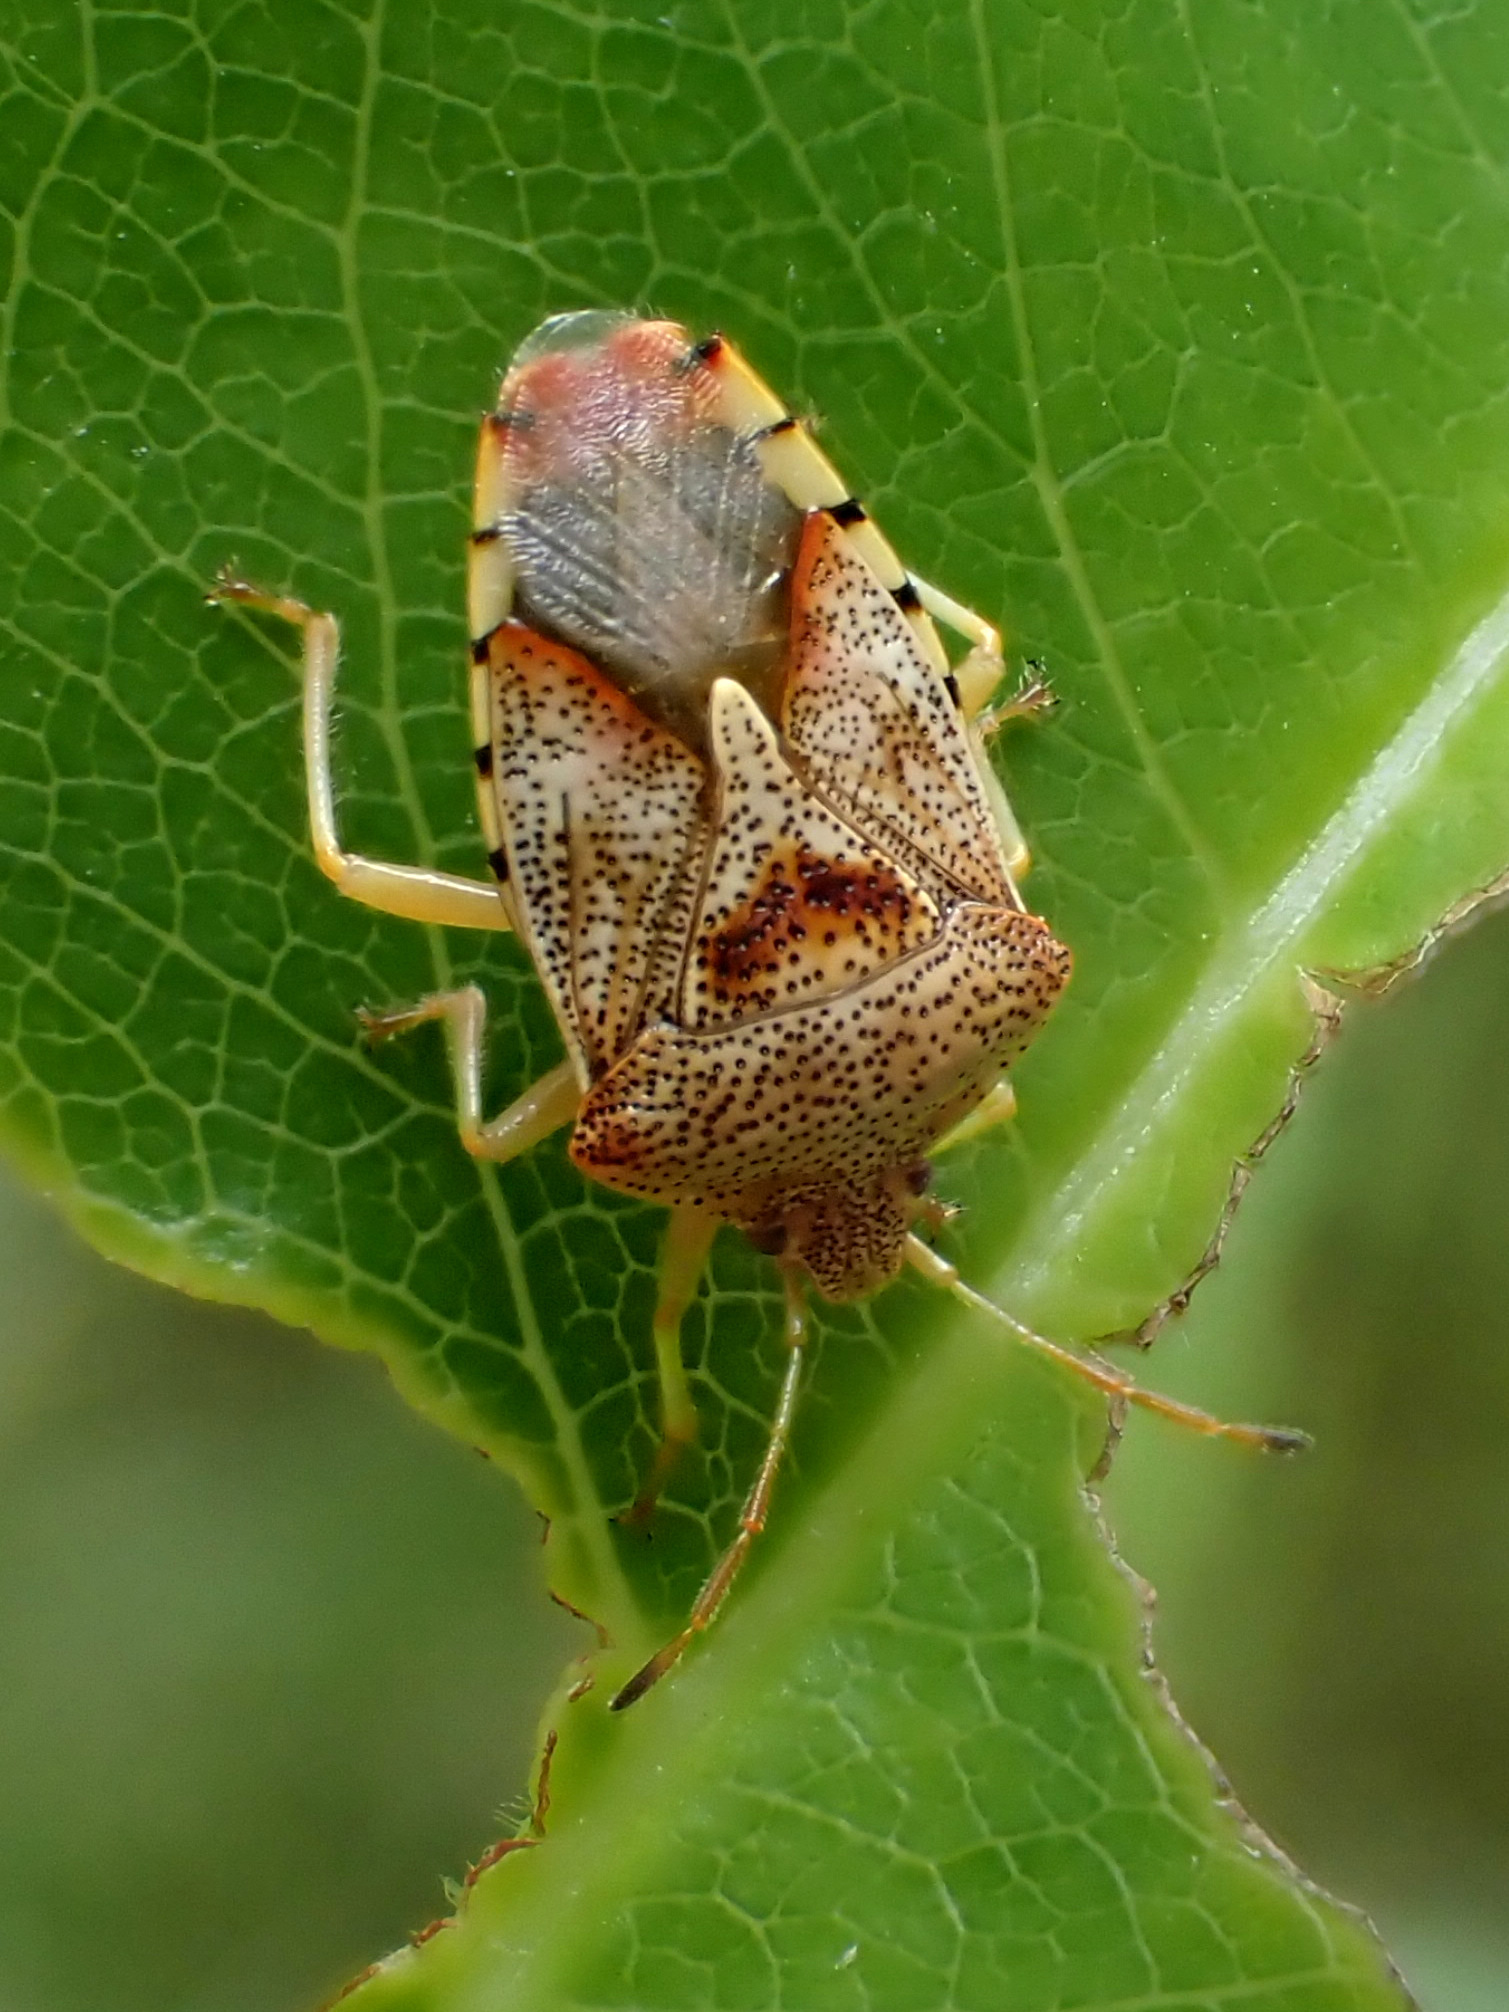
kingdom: Animalia
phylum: Arthropoda
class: Insecta
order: Hemiptera
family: Acanthosomatidae
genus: Elasmucha
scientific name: Elasmucha grisea
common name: Parent bug
